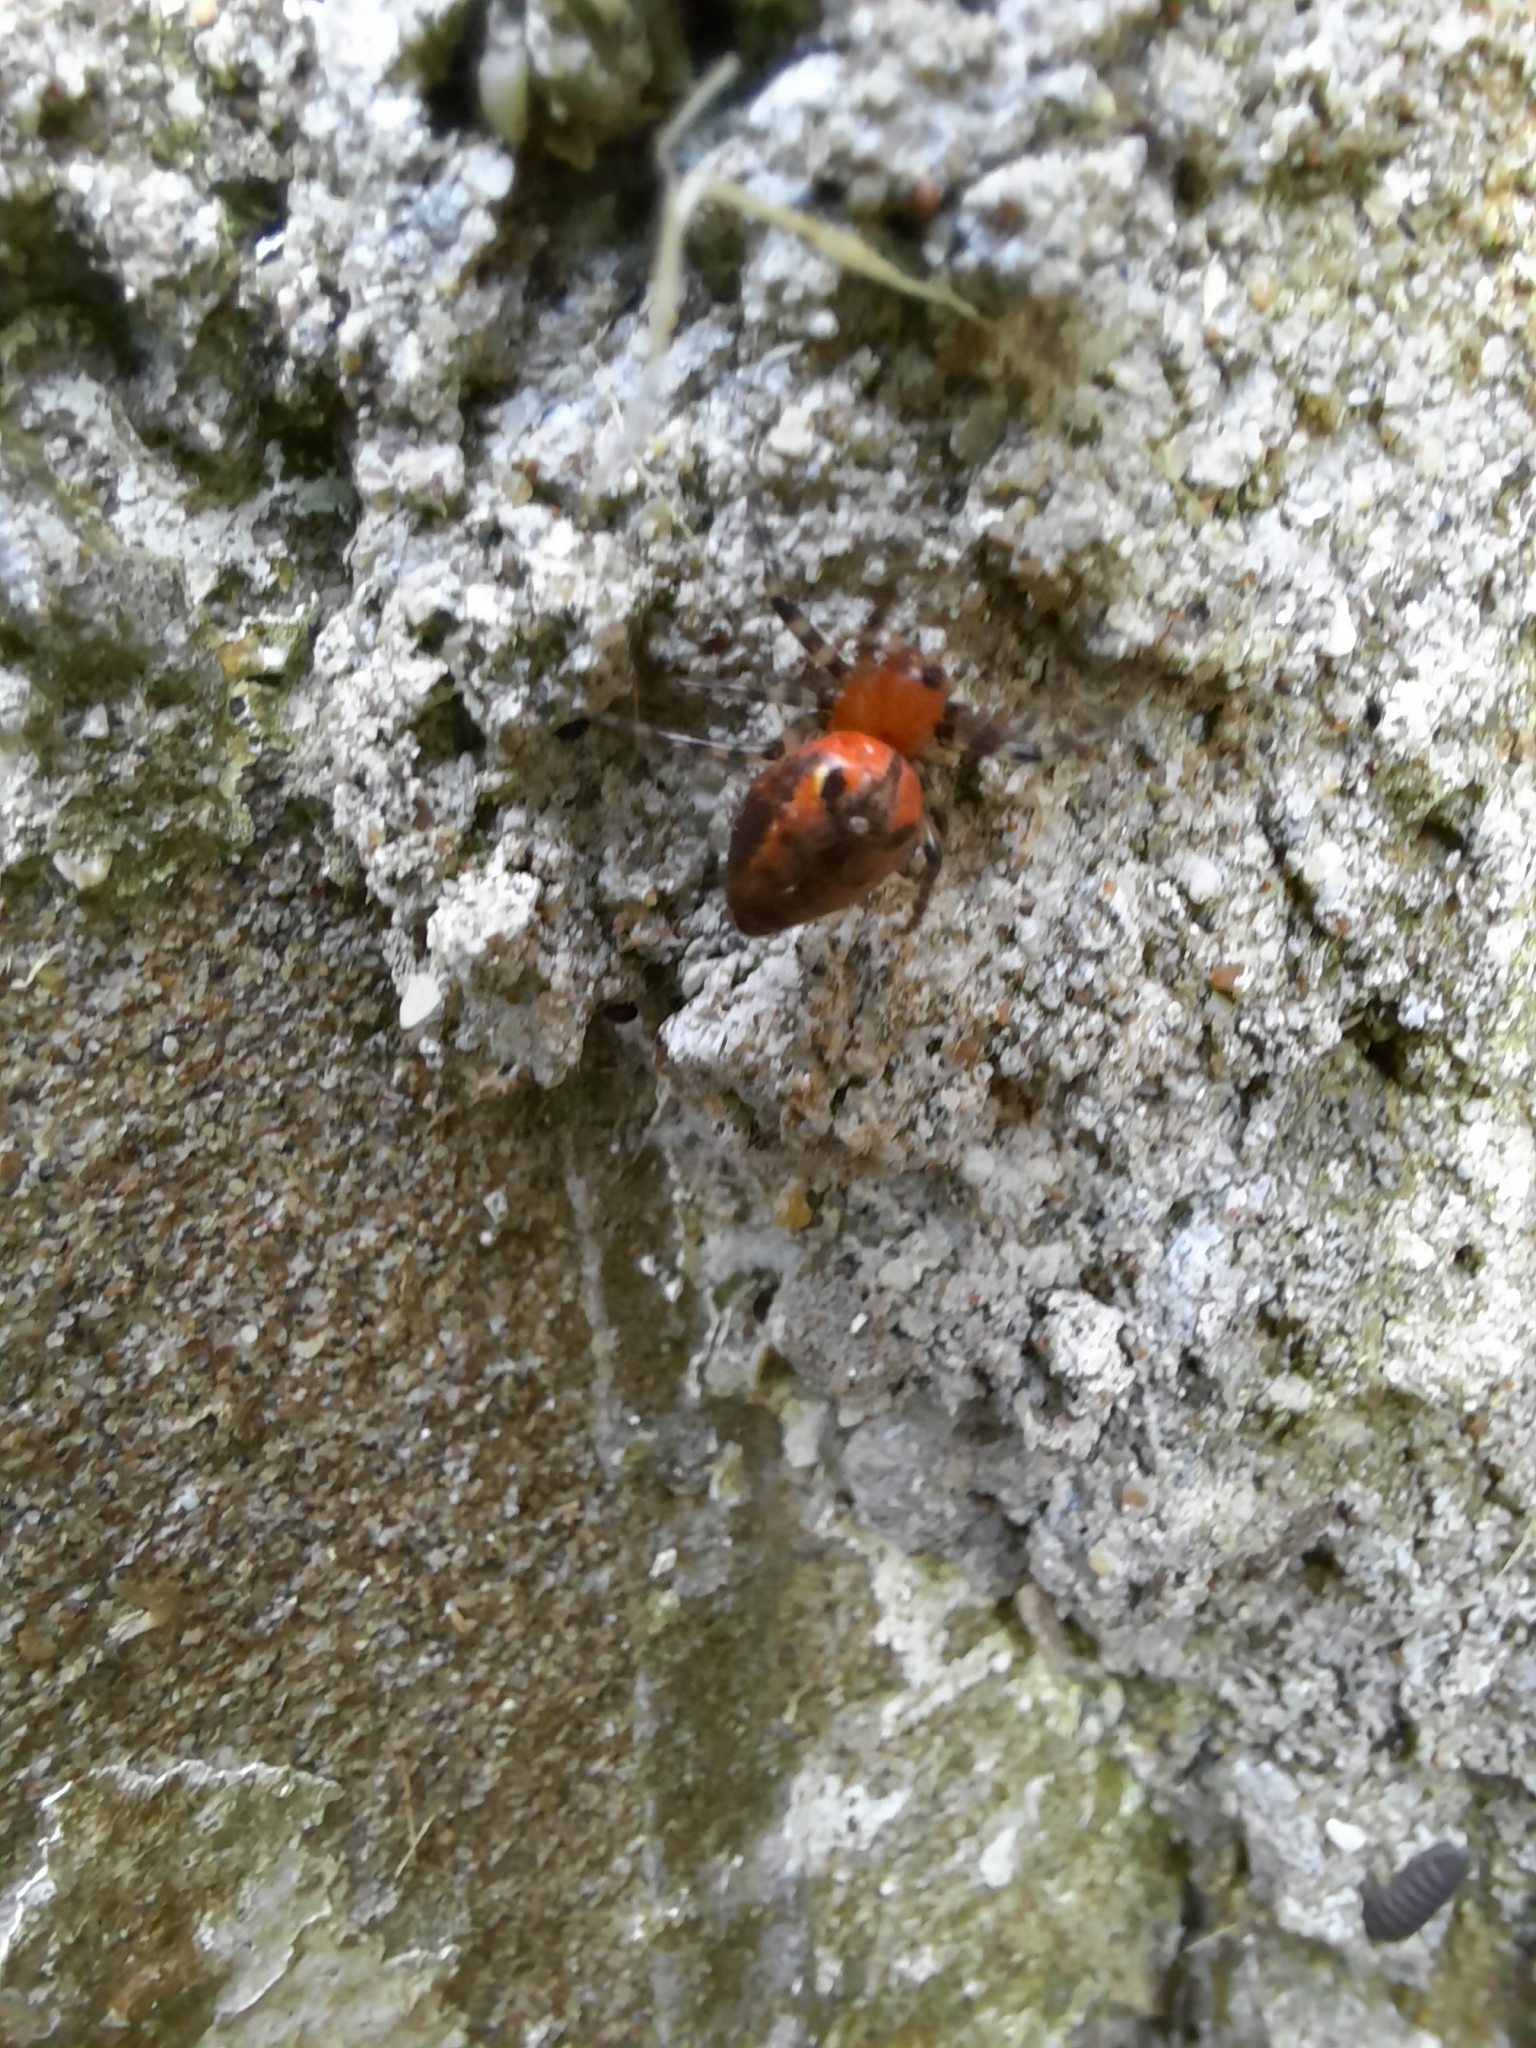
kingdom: Animalia
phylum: Arthropoda
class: Arachnida
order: Araneae
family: Araneidae
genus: Alpaida
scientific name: Alpaida gallardoi
